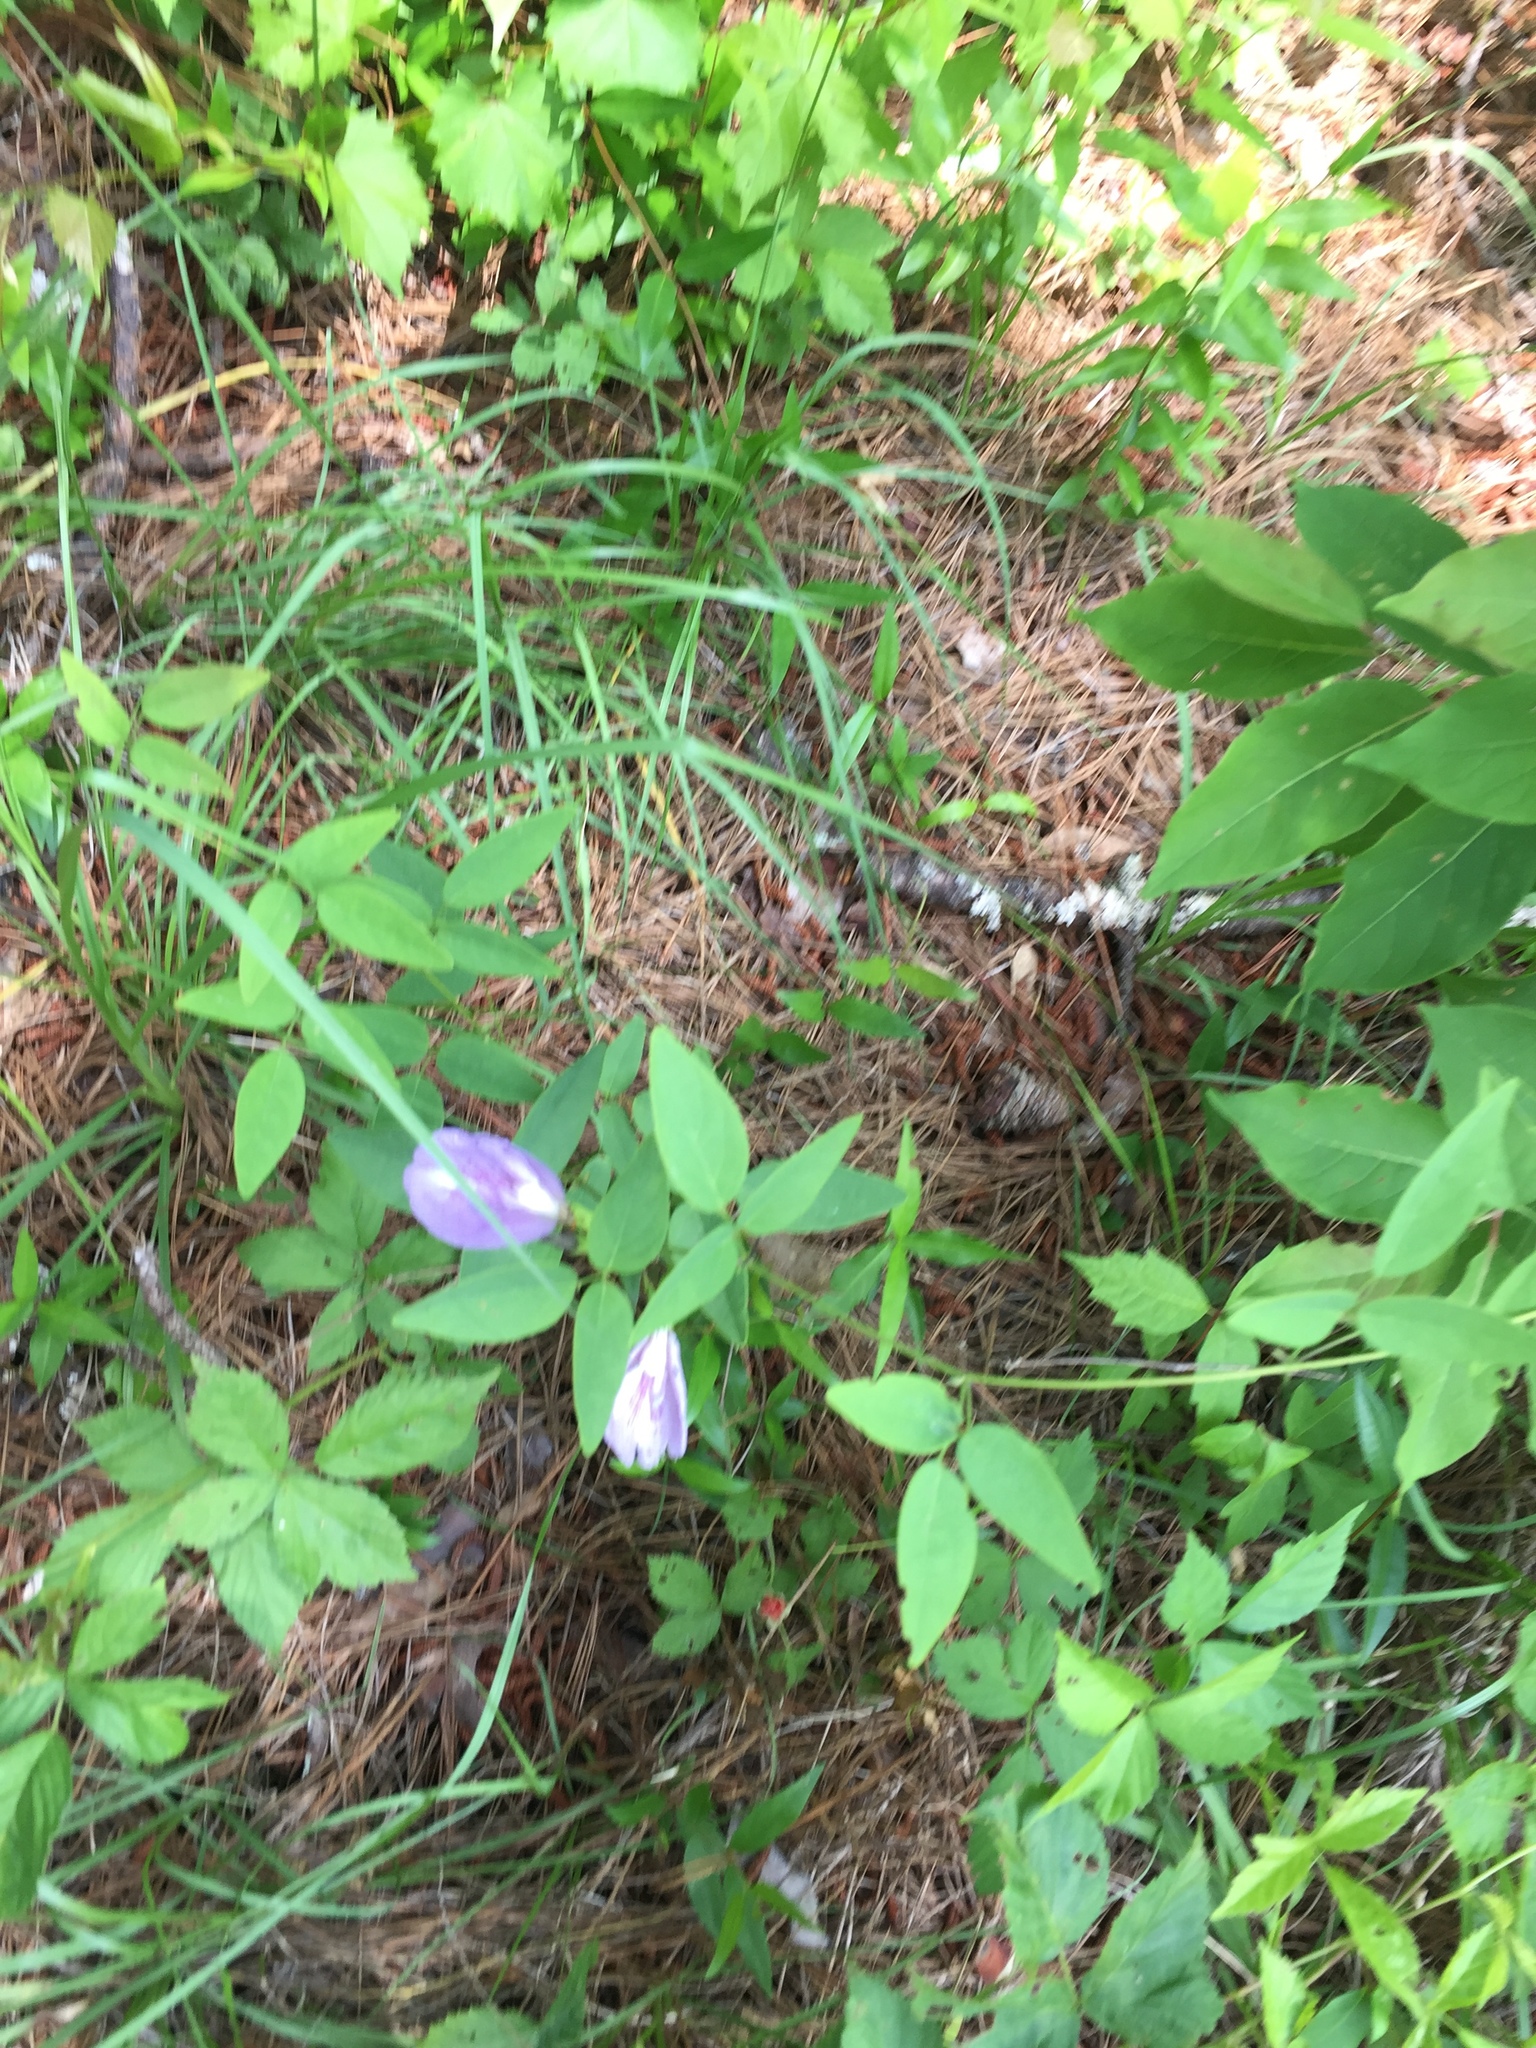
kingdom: Plantae
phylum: Tracheophyta
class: Magnoliopsida
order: Fabales
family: Fabaceae
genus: Clitoria
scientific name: Clitoria mariana
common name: Butterfly-pea
